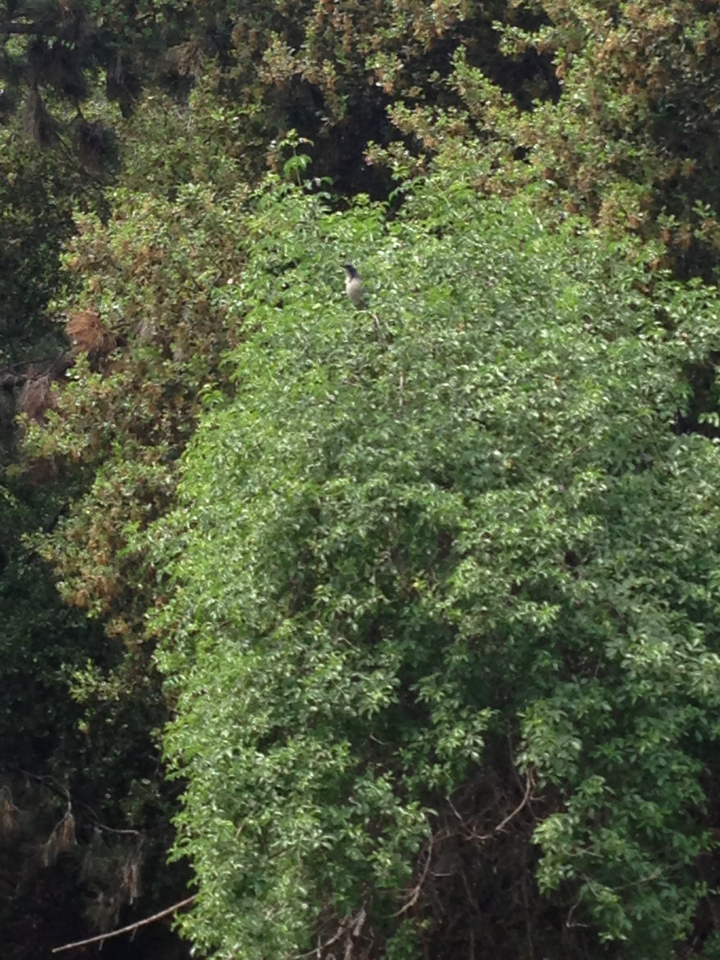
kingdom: Animalia
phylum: Chordata
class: Aves
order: Passeriformes
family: Corvidae
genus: Aphelocoma
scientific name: Aphelocoma californica
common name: California scrub-jay
